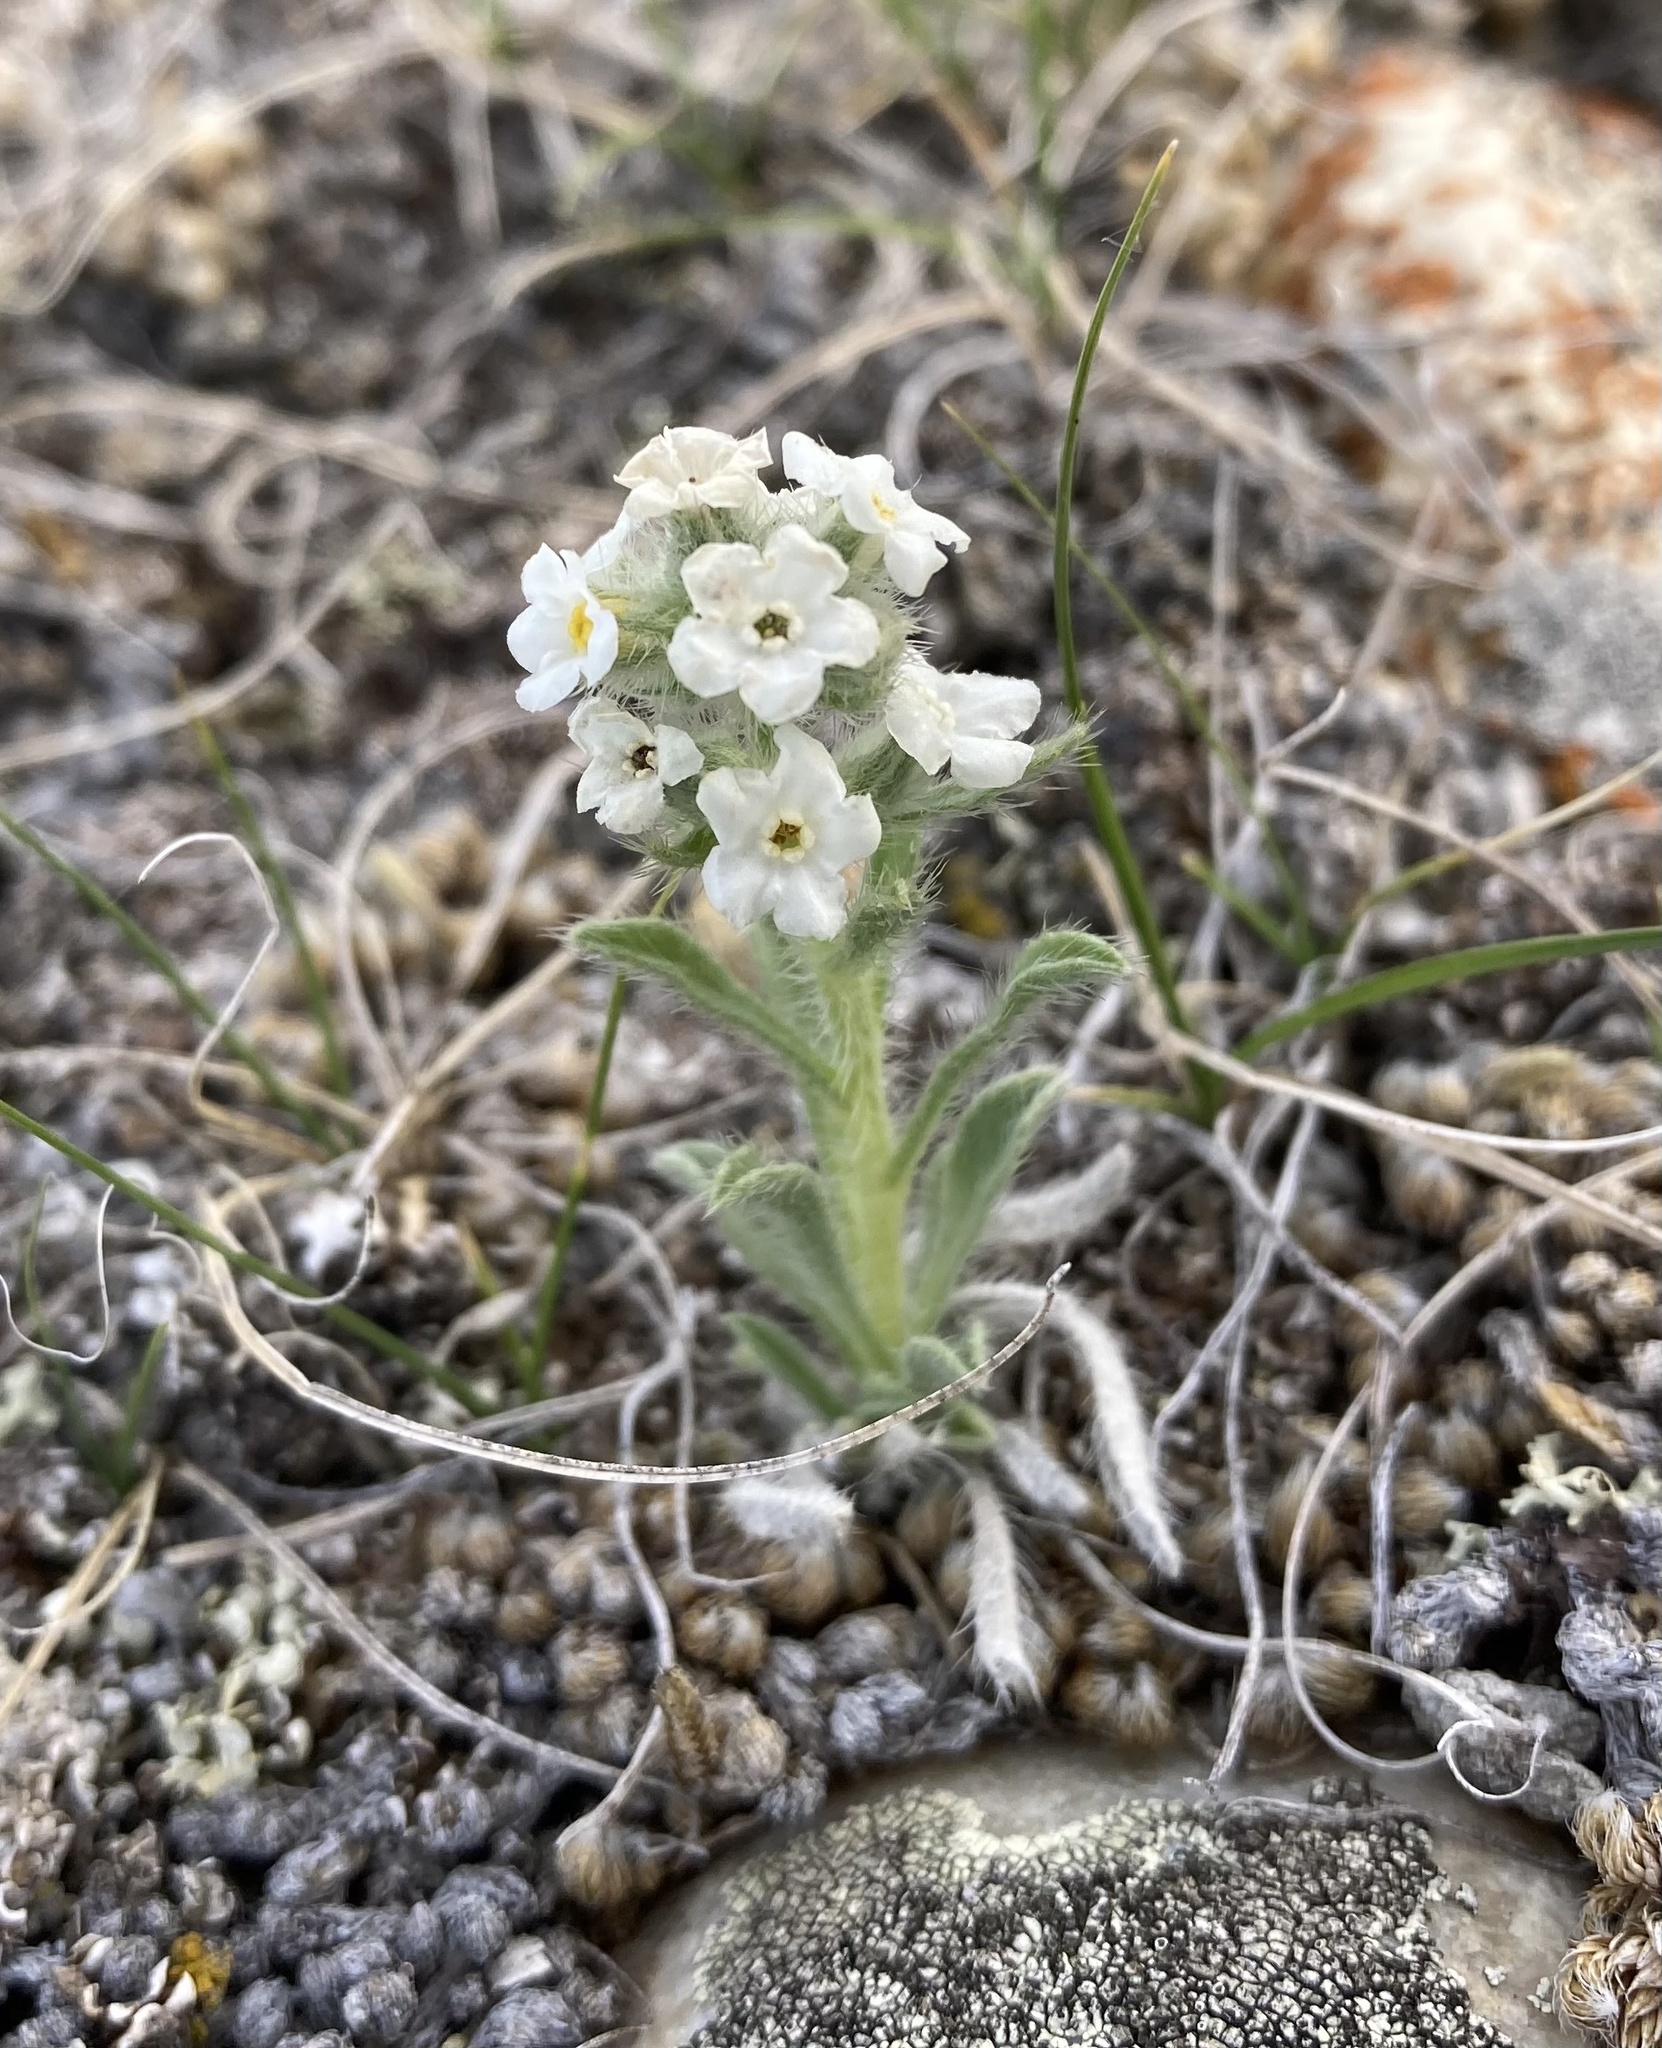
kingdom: Plantae
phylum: Tracheophyta
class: Magnoliopsida
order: Boraginales
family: Boraginaceae
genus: Oreocarya
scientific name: Oreocarya glomerata
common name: Macoun's cryptantha
